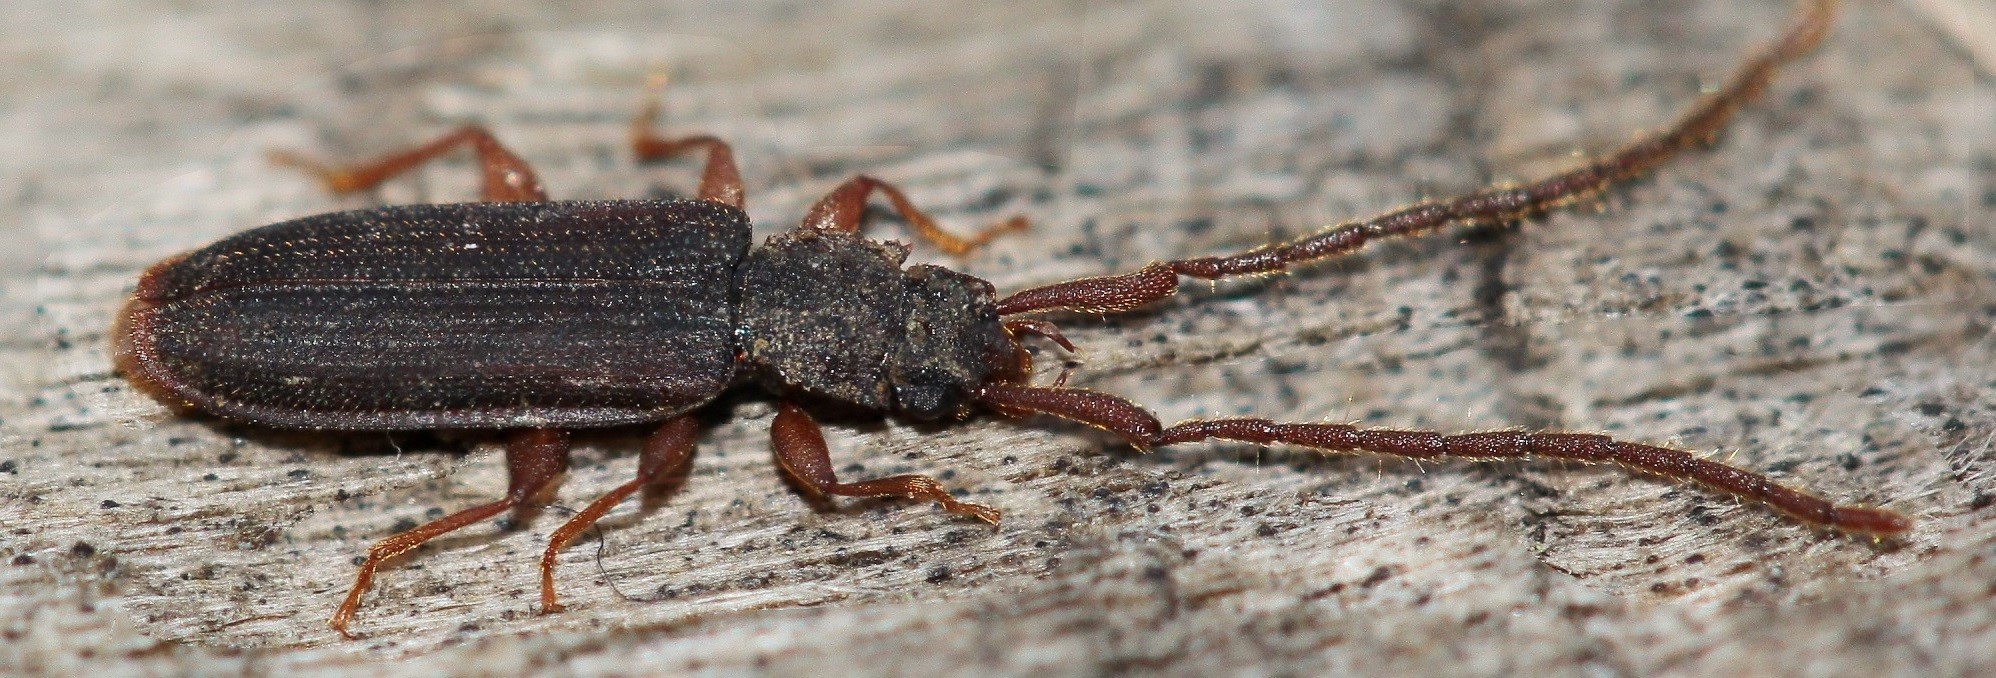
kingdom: Animalia
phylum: Arthropoda
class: Insecta
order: Coleoptera
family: Silvanidae
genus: Uleiota
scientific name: Uleiota planatus
